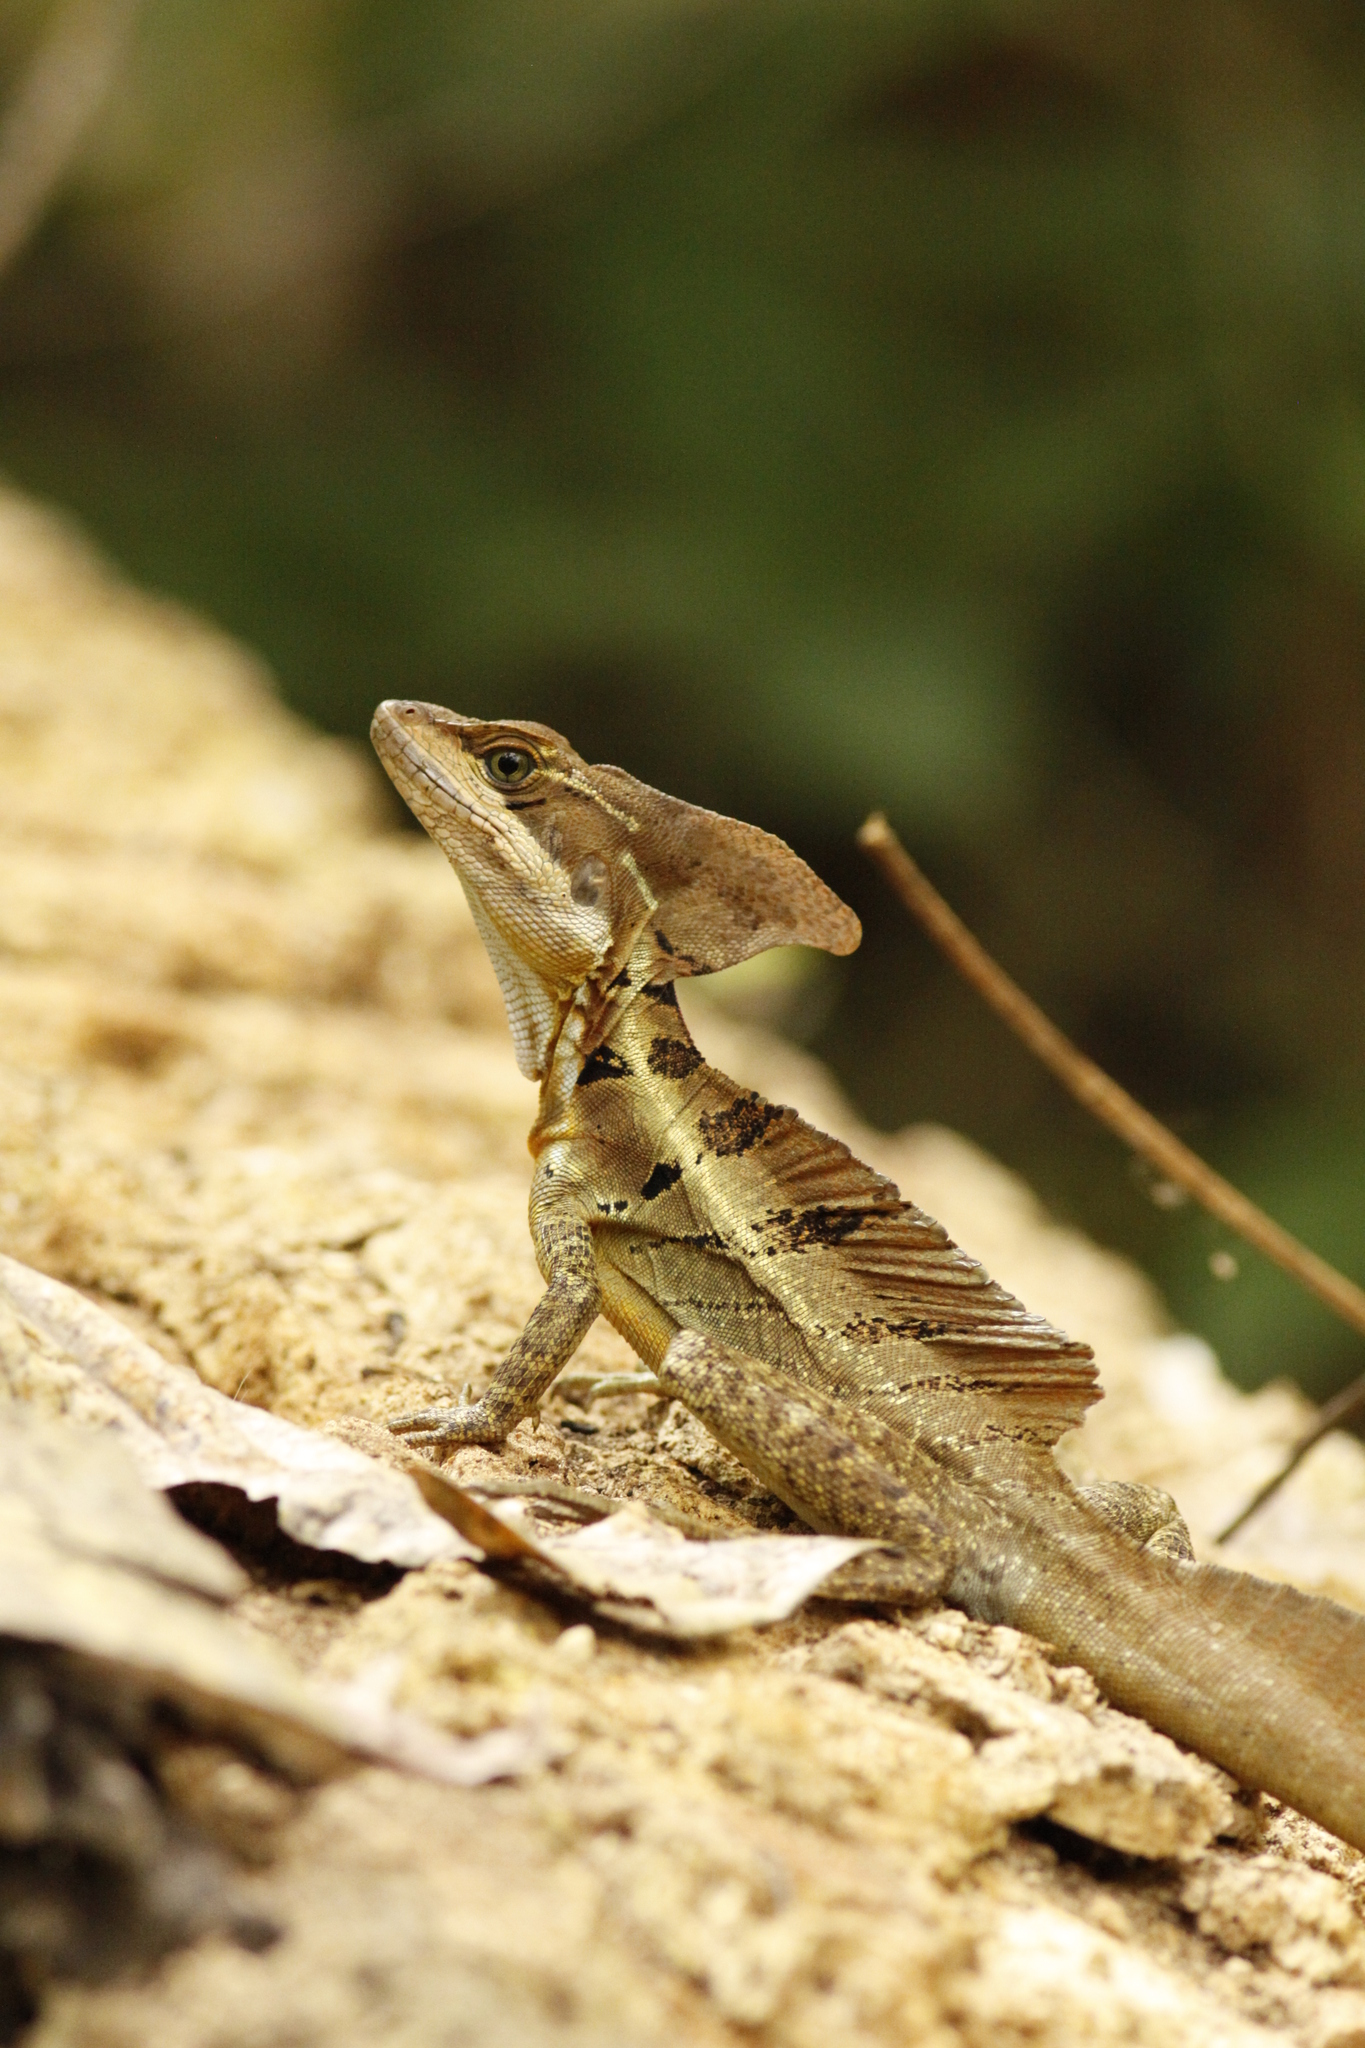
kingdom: Animalia
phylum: Chordata
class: Squamata
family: Corytophanidae
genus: Basiliscus
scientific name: Basiliscus basiliscus
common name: Common basilisk
